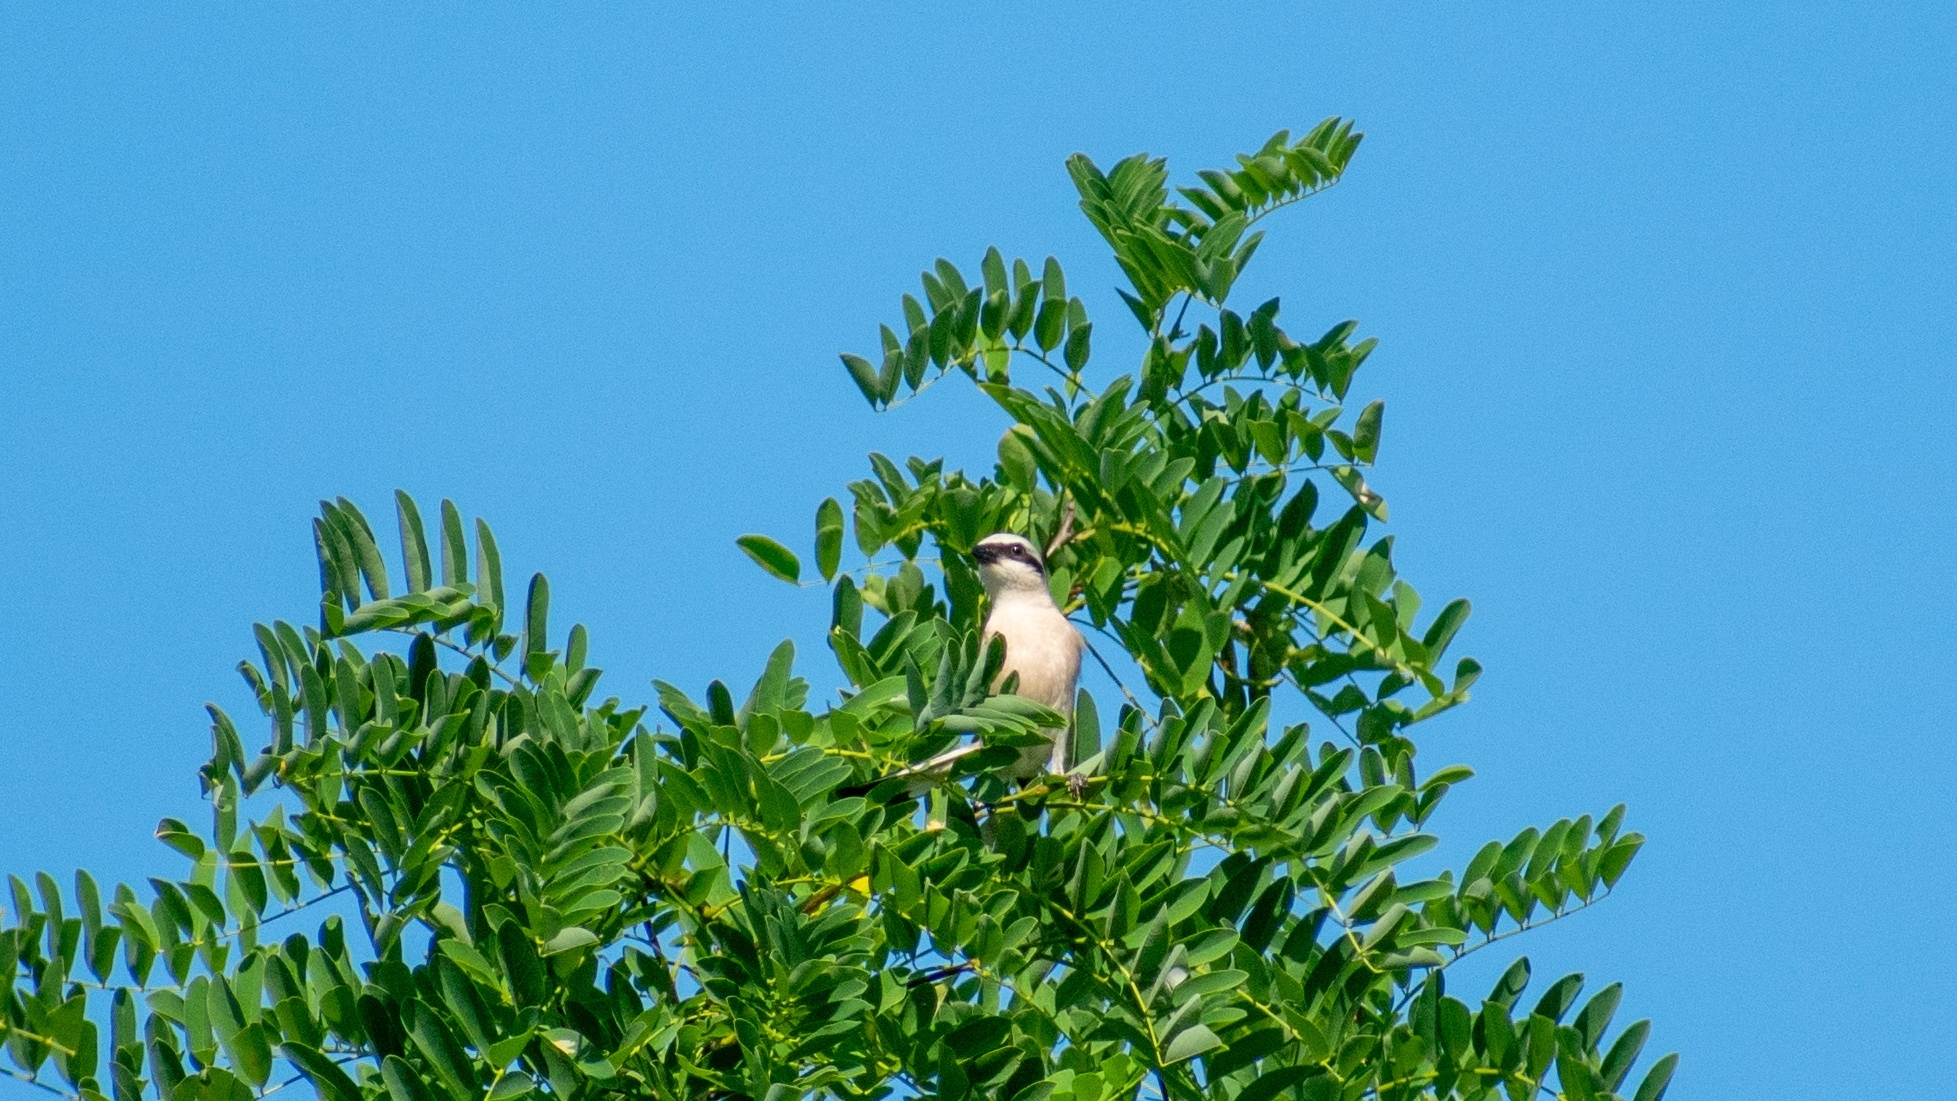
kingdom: Animalia
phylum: Chordata
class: Aves
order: Passeriformes
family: Laniidae
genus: Lanius
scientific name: Lanius collurio
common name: Red-backed shrike
